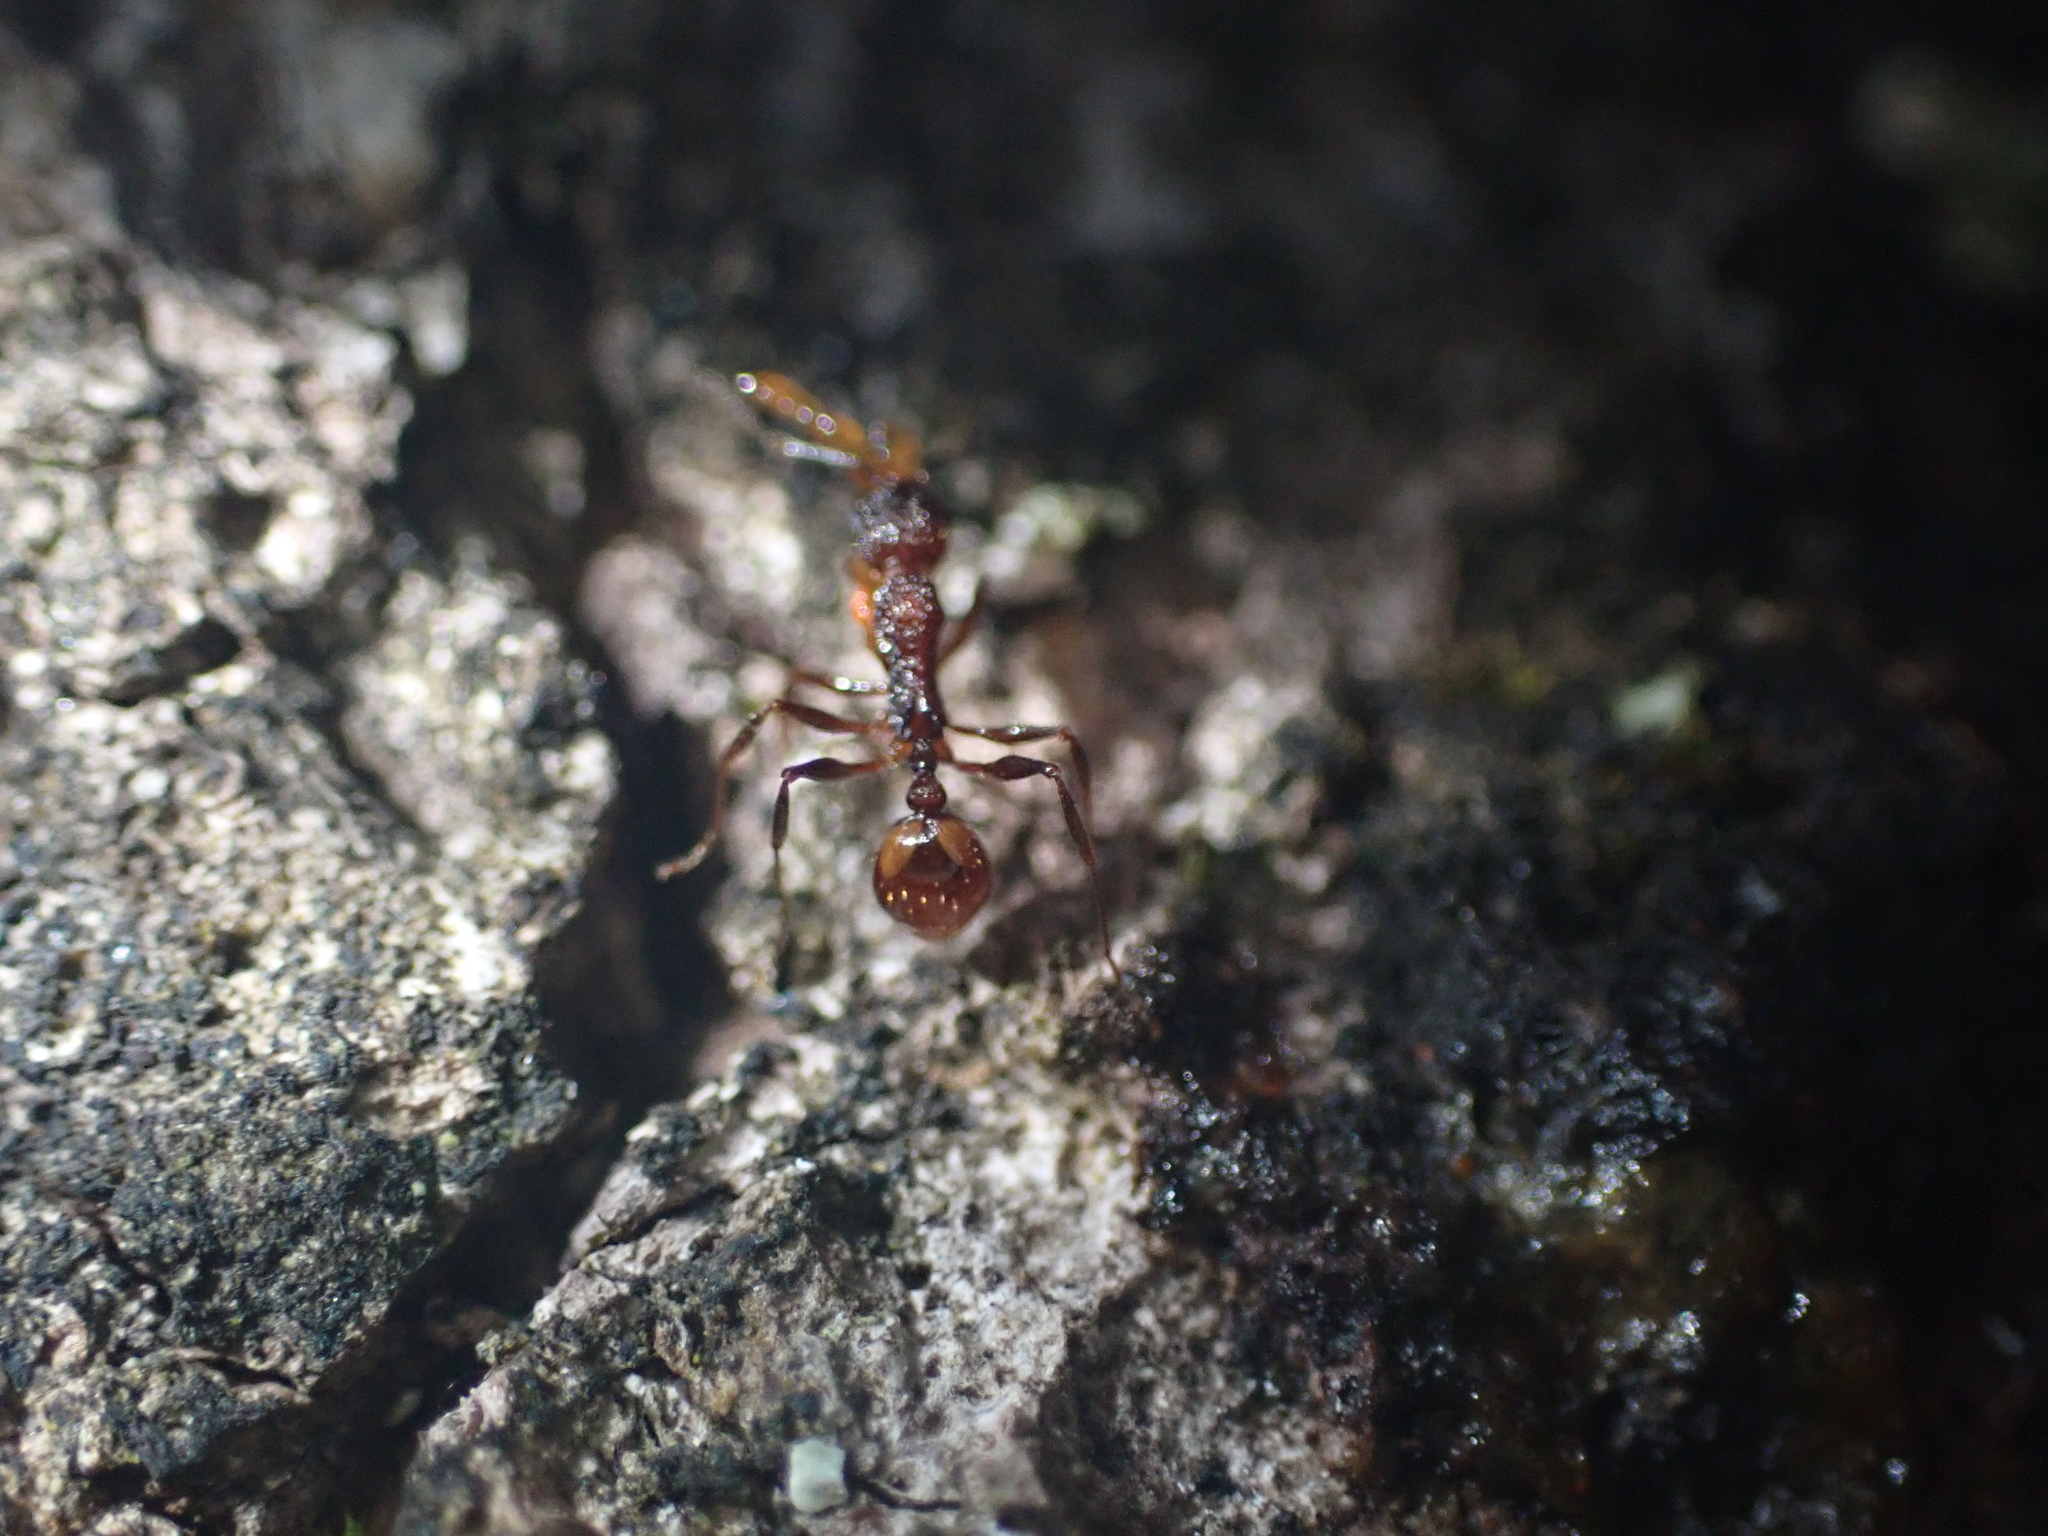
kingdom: Animalia
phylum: Arthropoda
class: Insecta
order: Hymenoptera
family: Formicidae
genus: Aphaenogaster
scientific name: Aphaenogaster mariae
